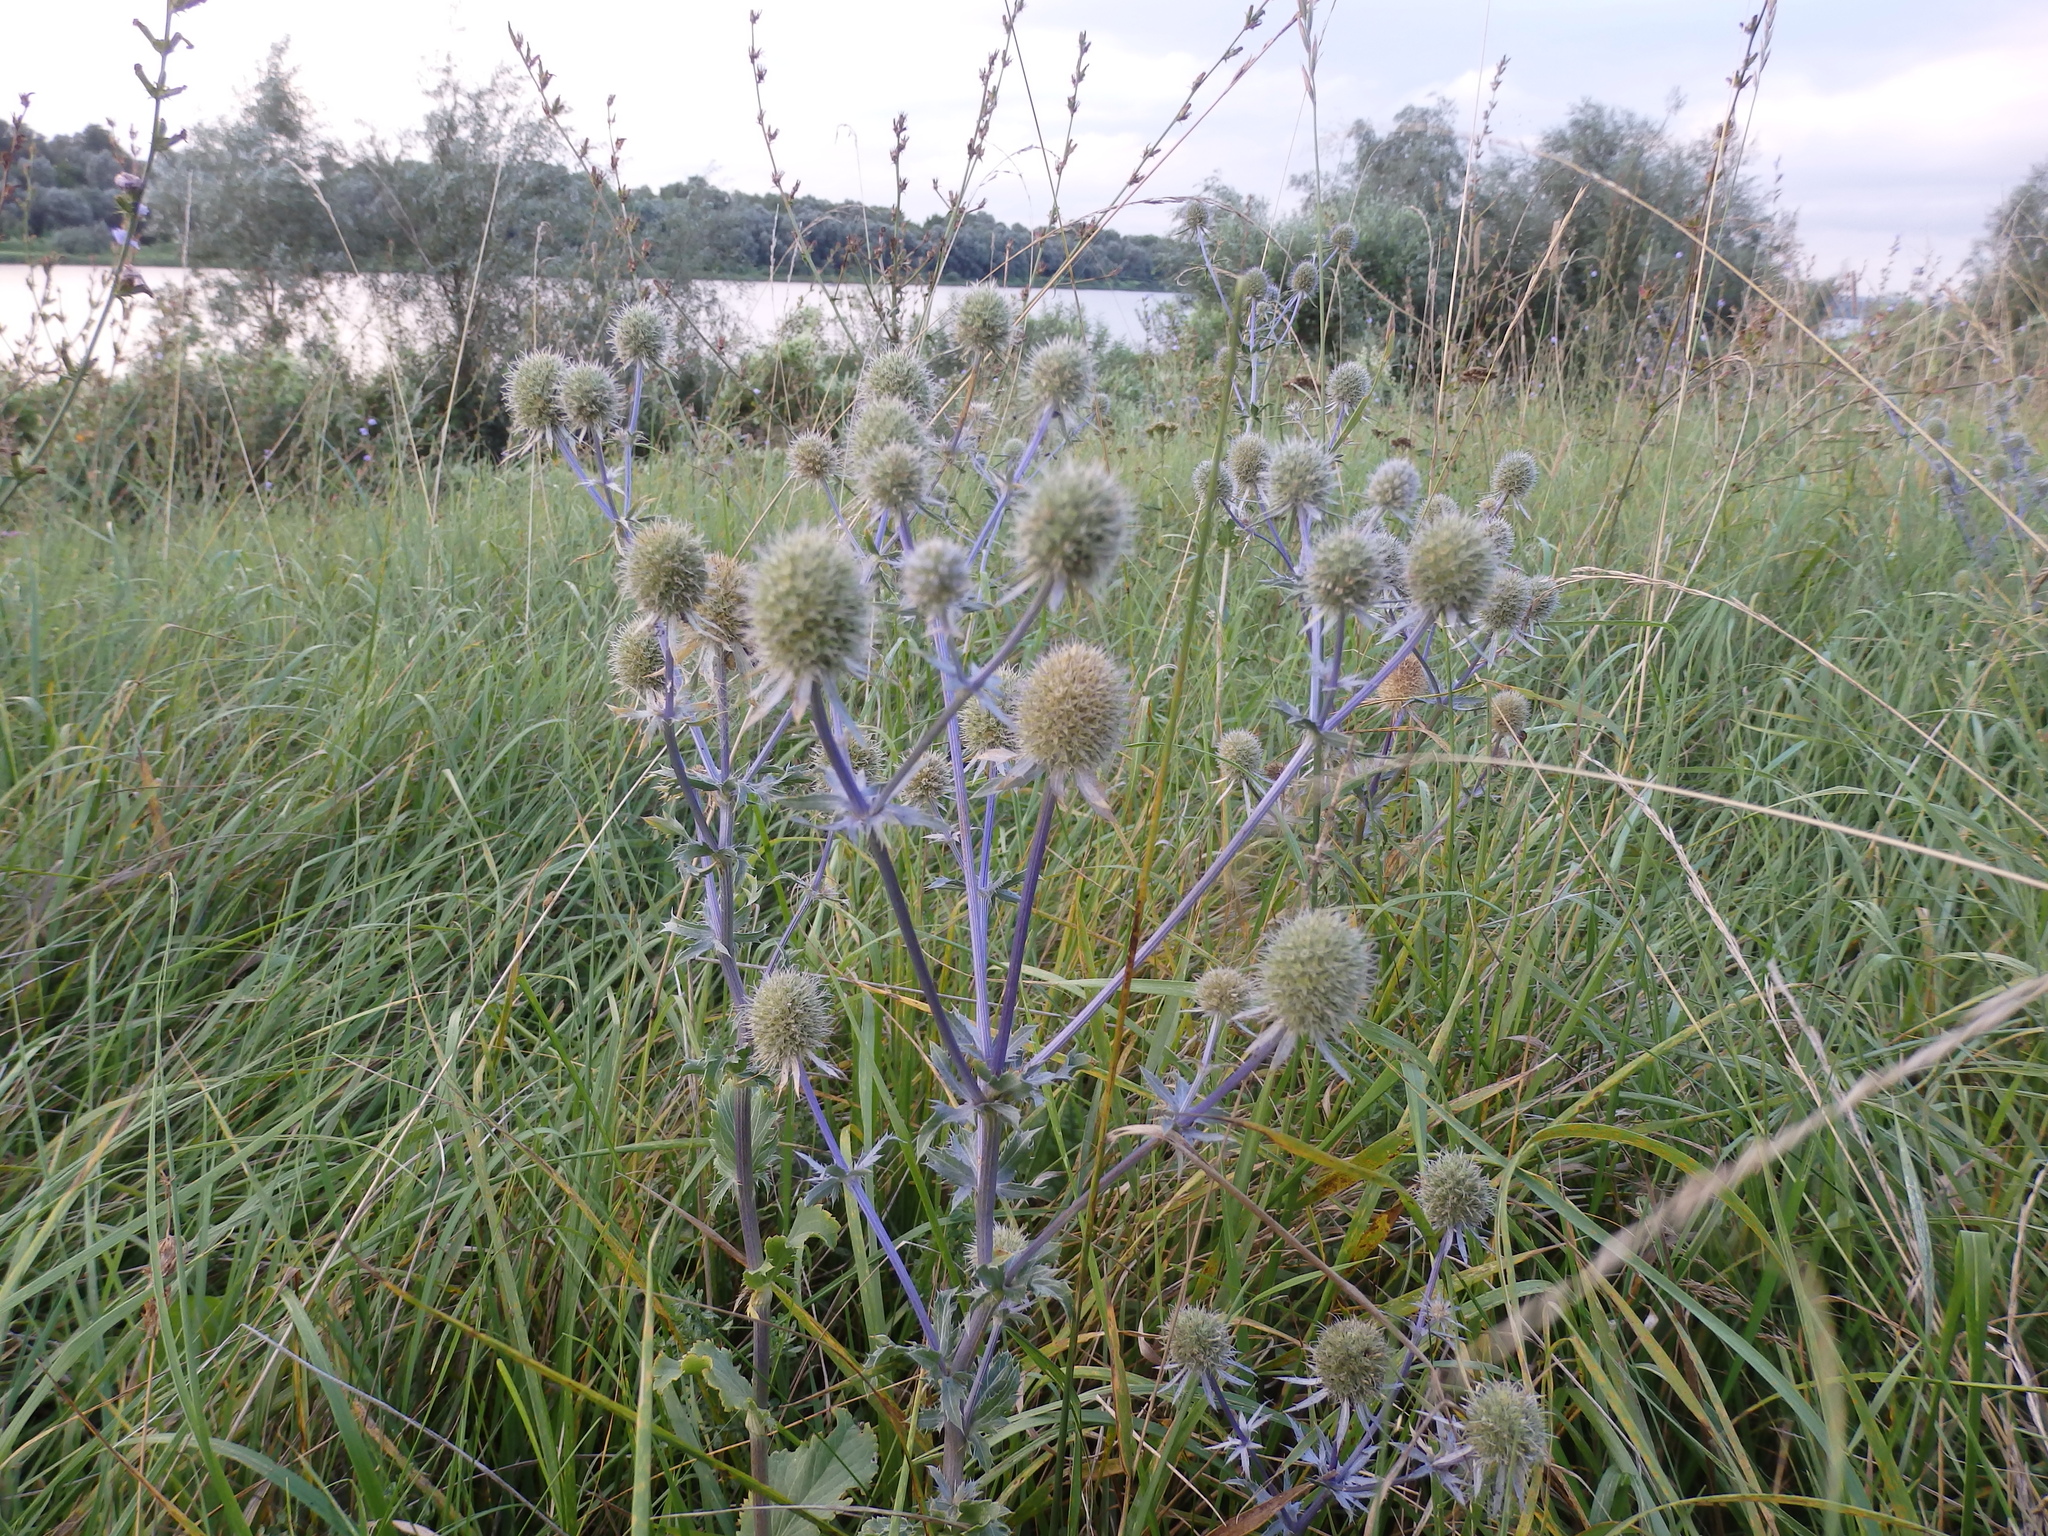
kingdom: Plantae
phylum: Tracheophyta
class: Magnoliopsida
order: Apiales
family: Apiaceae
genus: Eryngium
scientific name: Eryngium planum
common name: Blue eryngo
